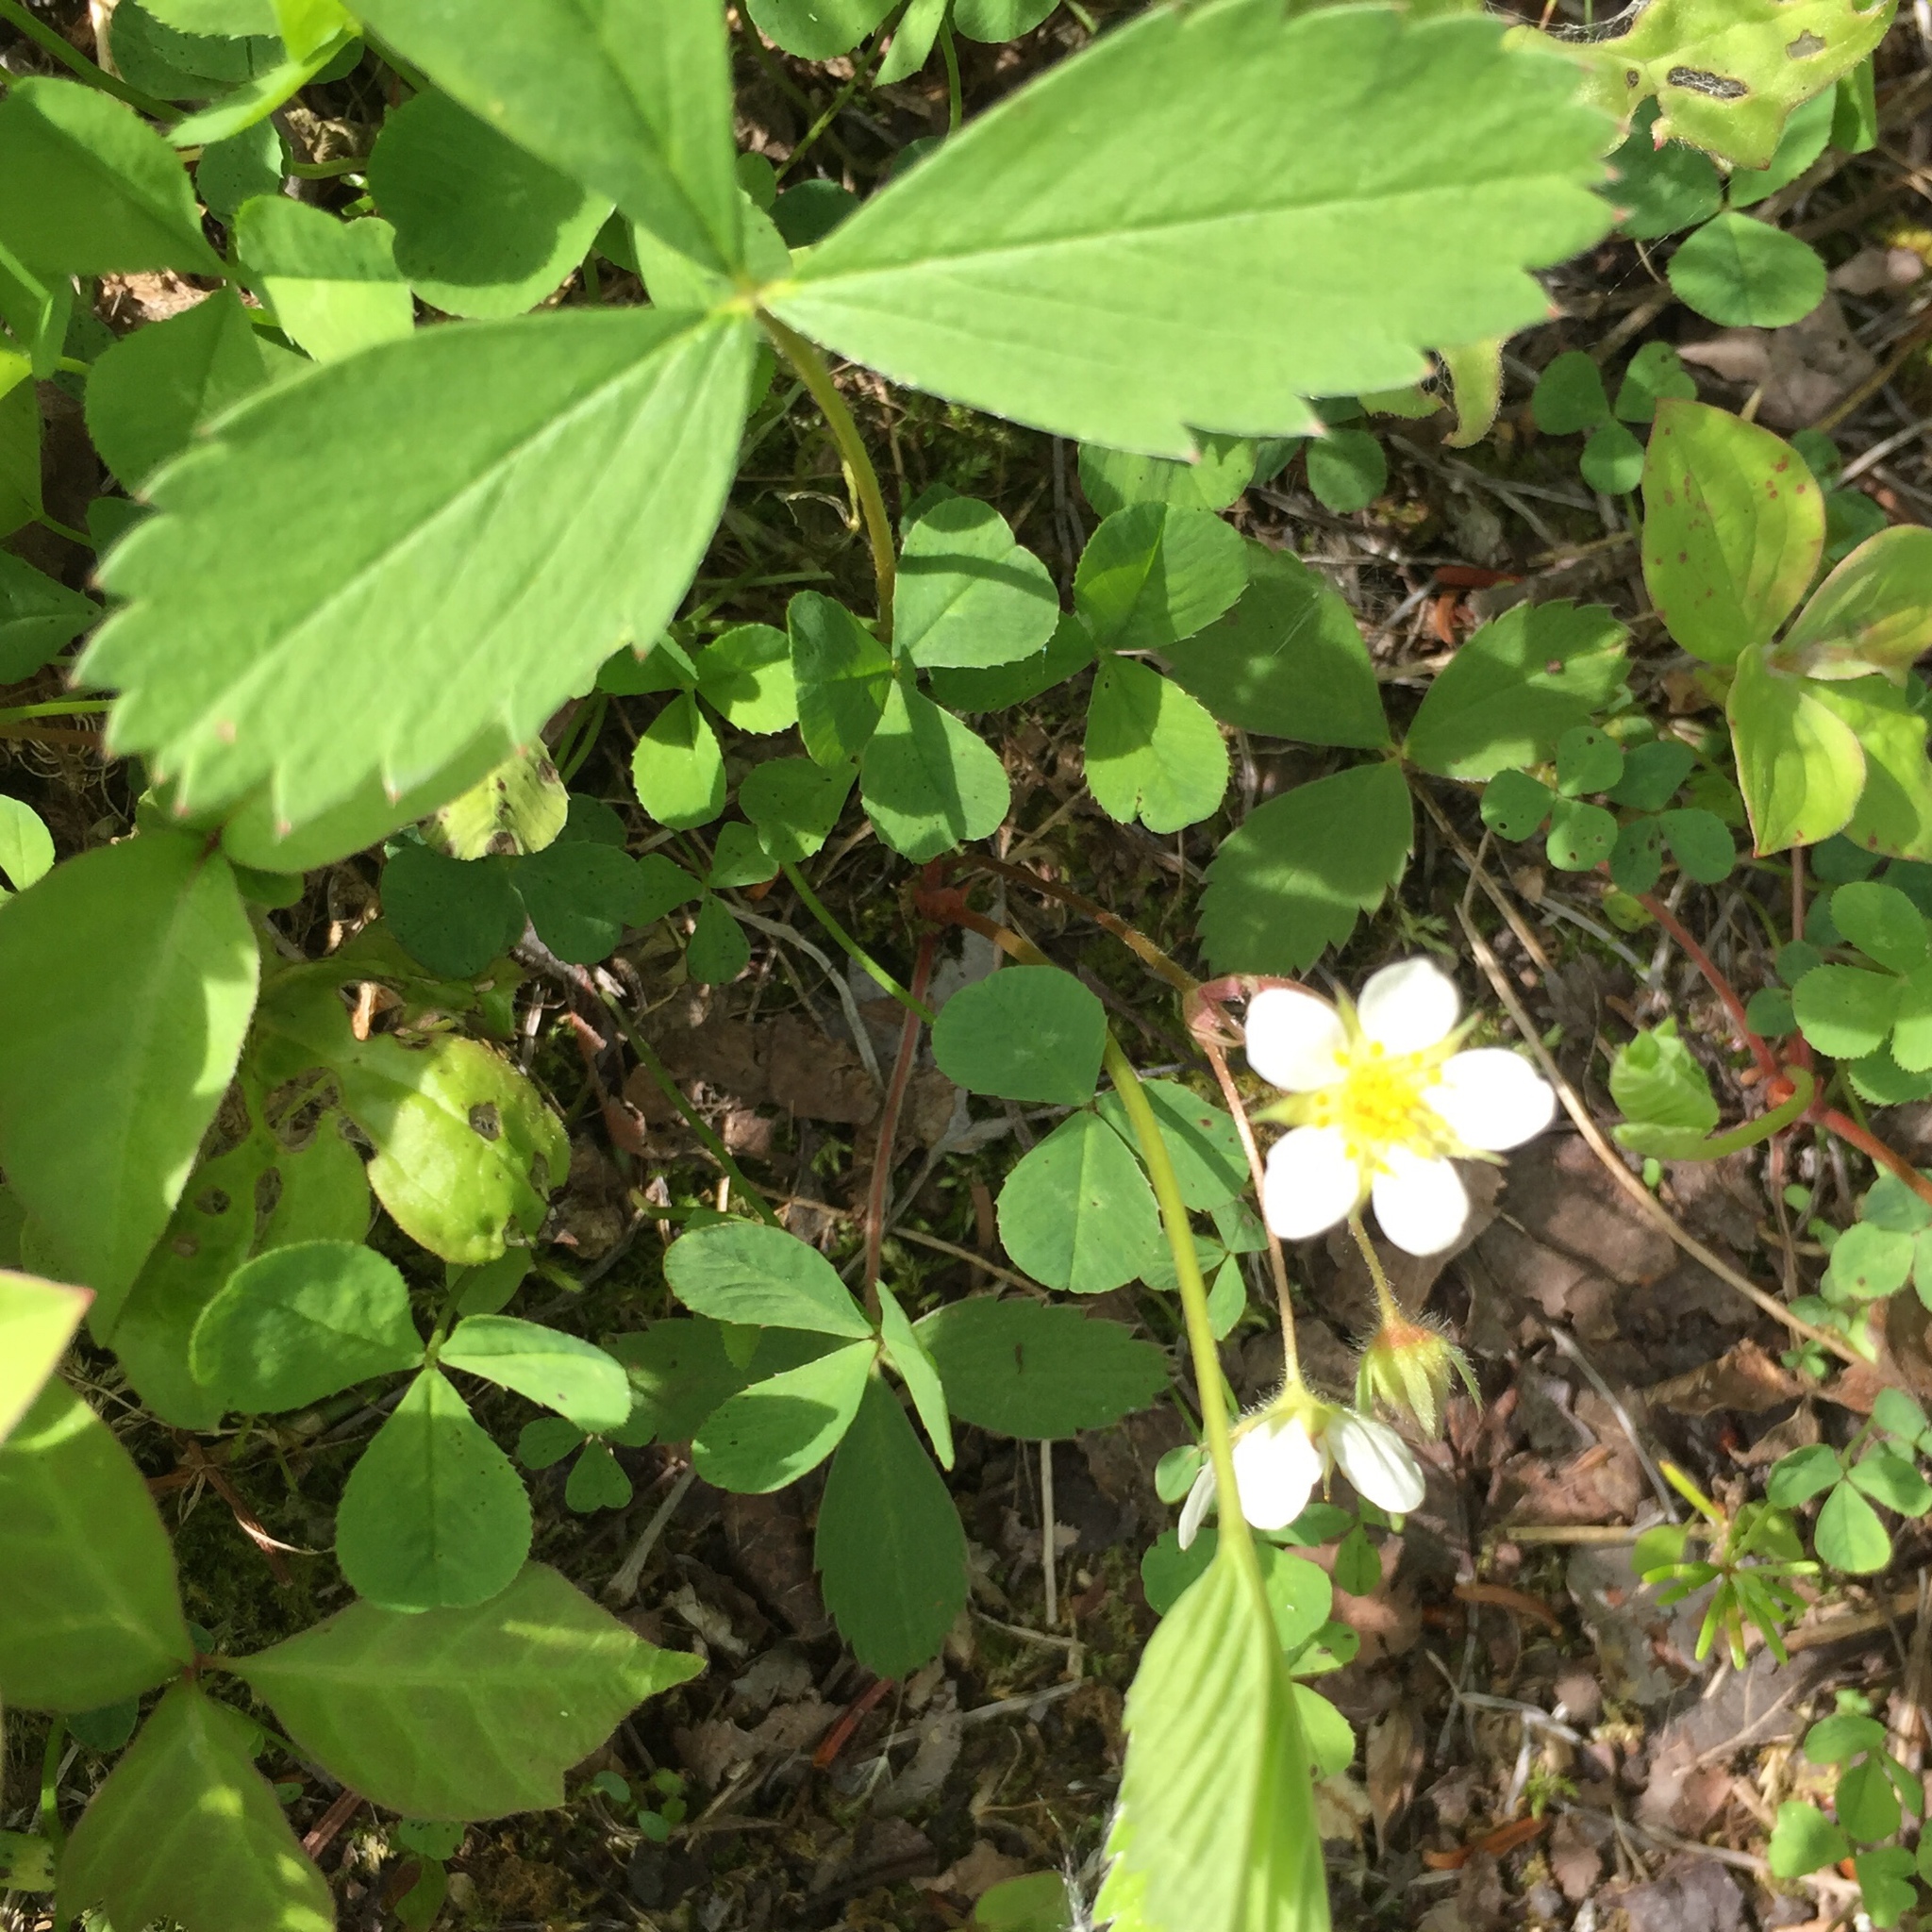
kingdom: Plantae
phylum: Tracheophyta
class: Magnoliopsida
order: Rosales
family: Rosaceae
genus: Fragaria
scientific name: Fragaria virginiana
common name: Thickleaved wild strawberry
